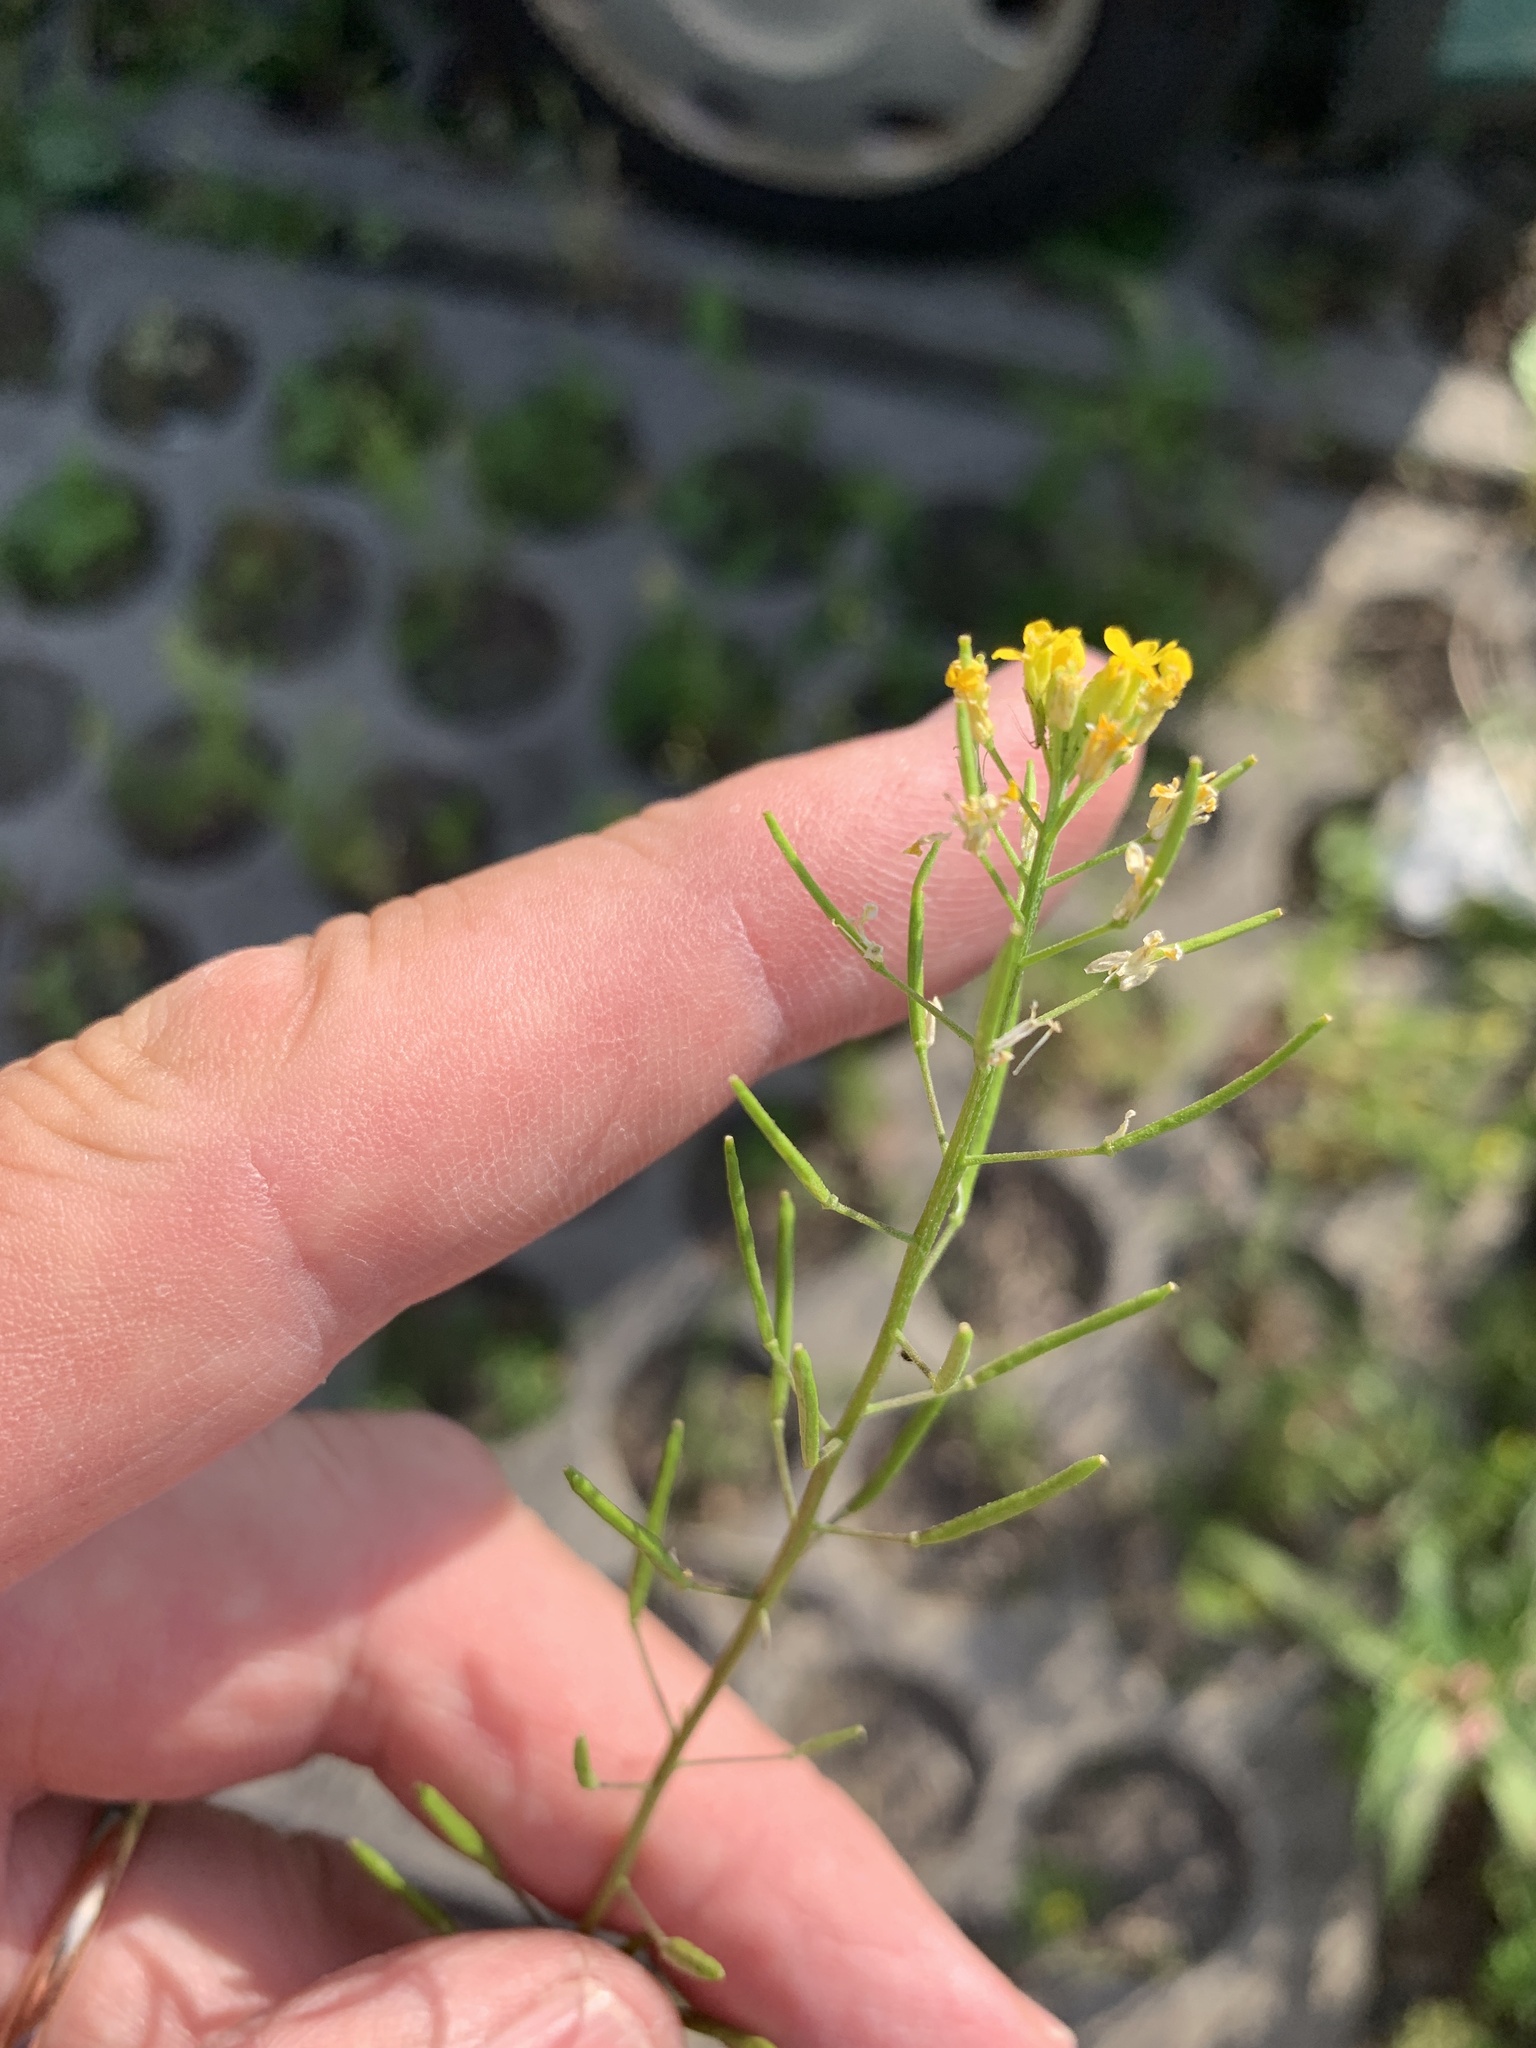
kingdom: Plantae
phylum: Tracheophyta
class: Magnoliopsida
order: Brassicales
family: Brassicaceae
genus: Erysimum
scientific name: Erysimum cheiranthoides
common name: Treacle mustard
